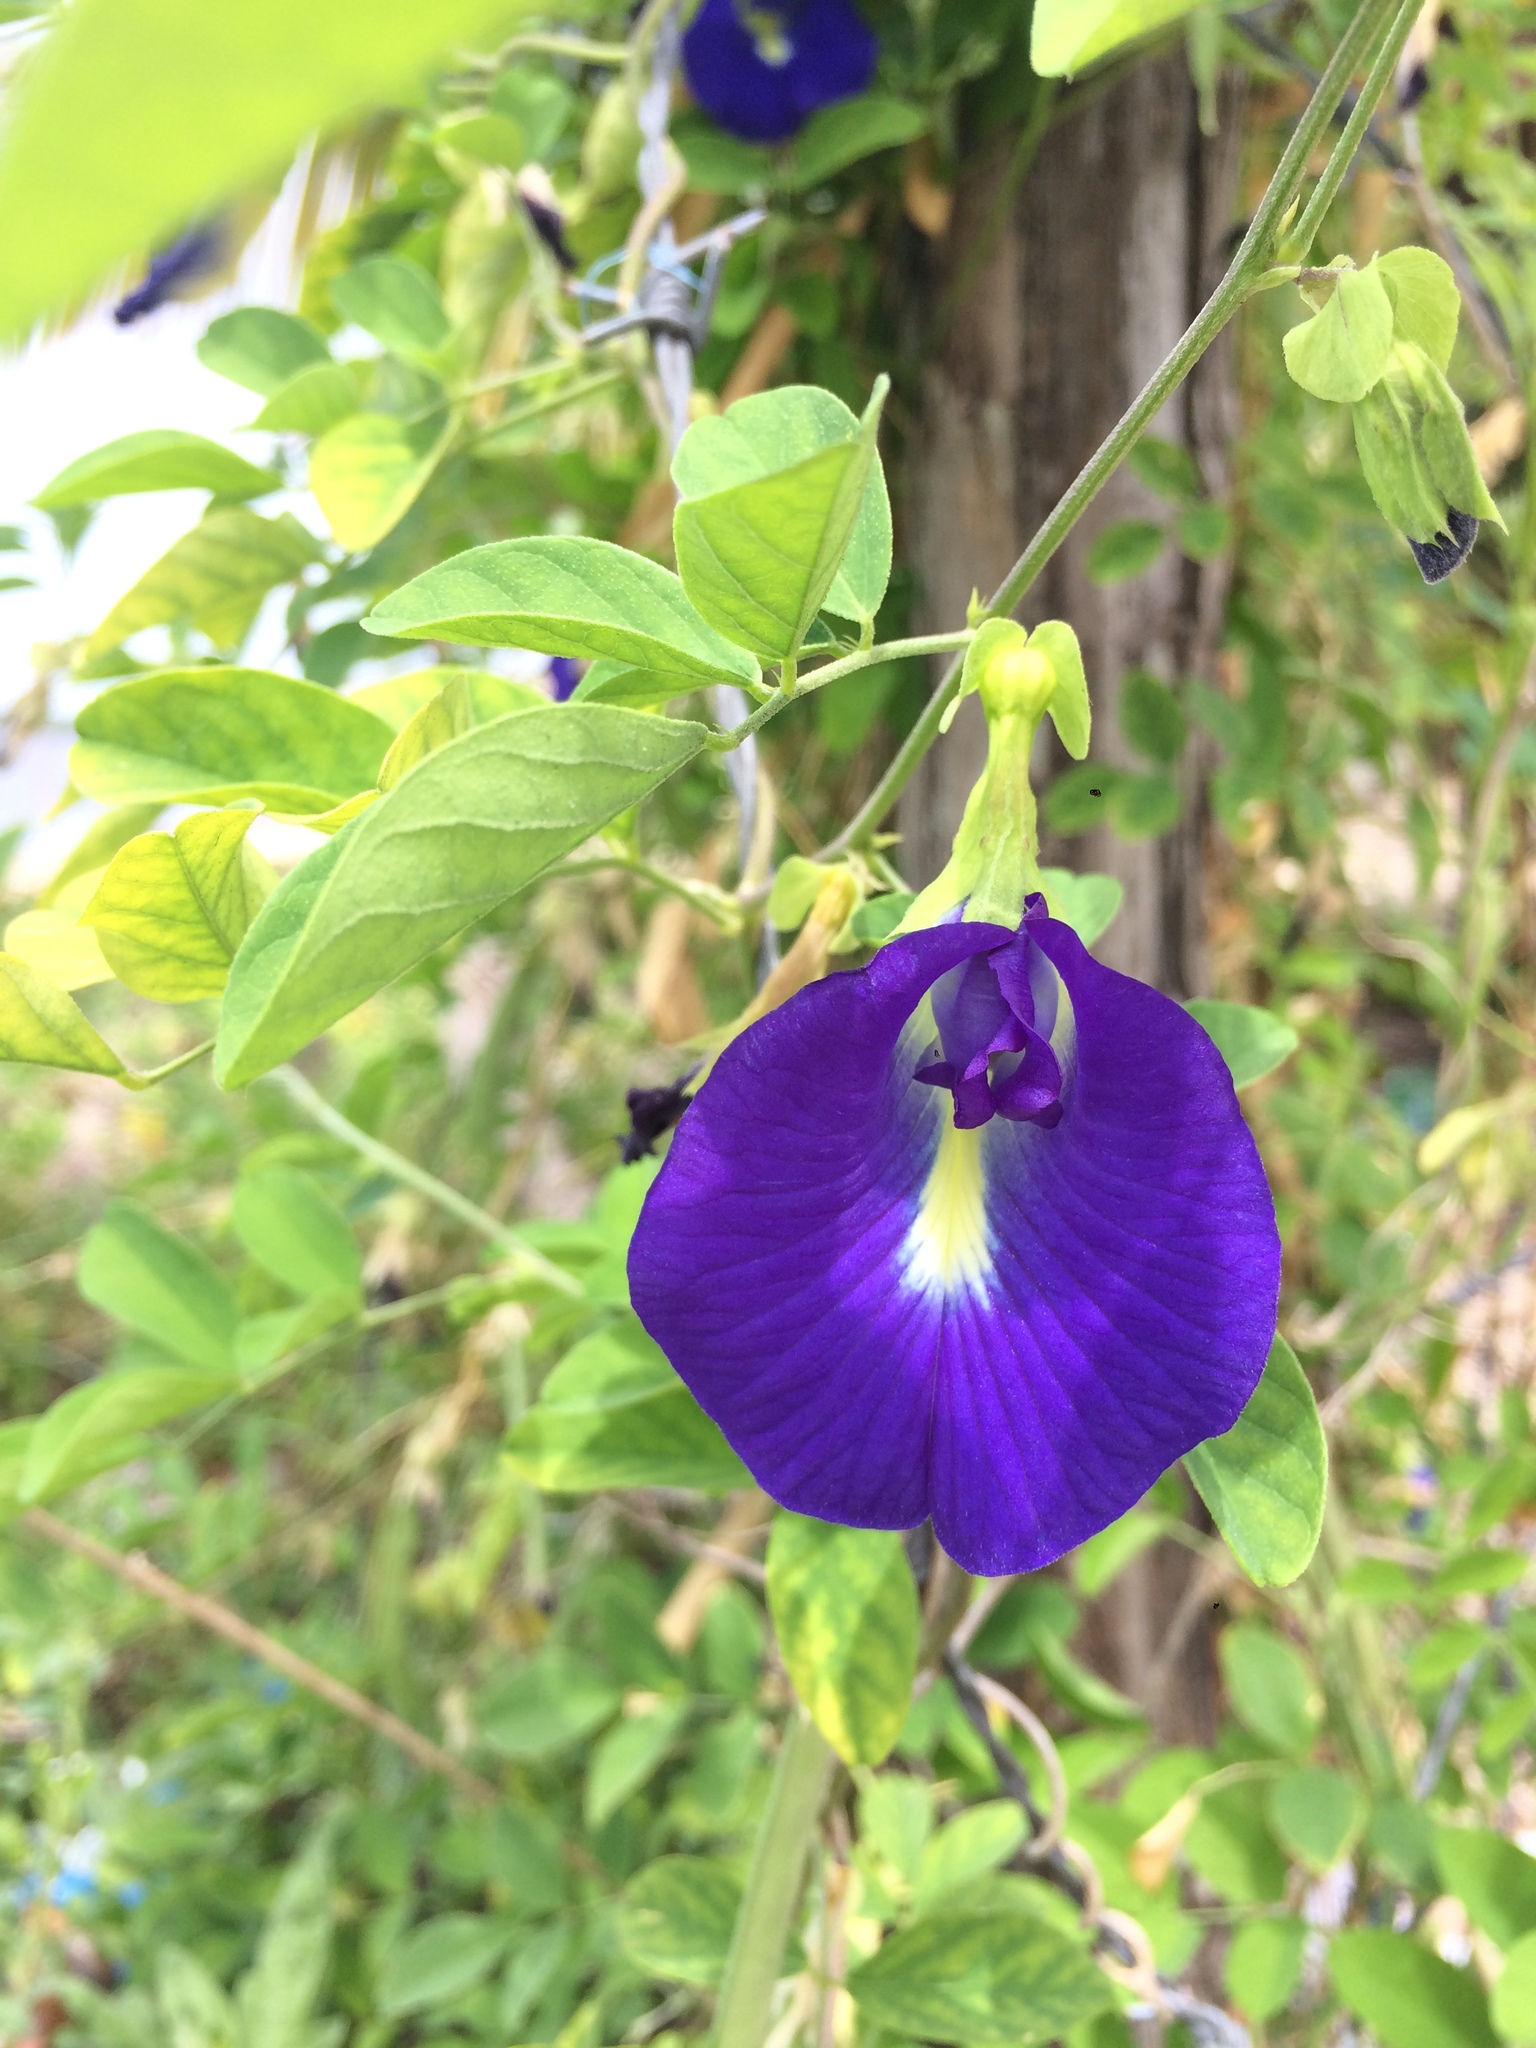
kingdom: Plantae
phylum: Tracheophyta
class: Magnoliopsida
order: Fabales
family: Fabaceae
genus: Clitoria
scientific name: Clitoria ternatea
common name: Asian pigeonwings
